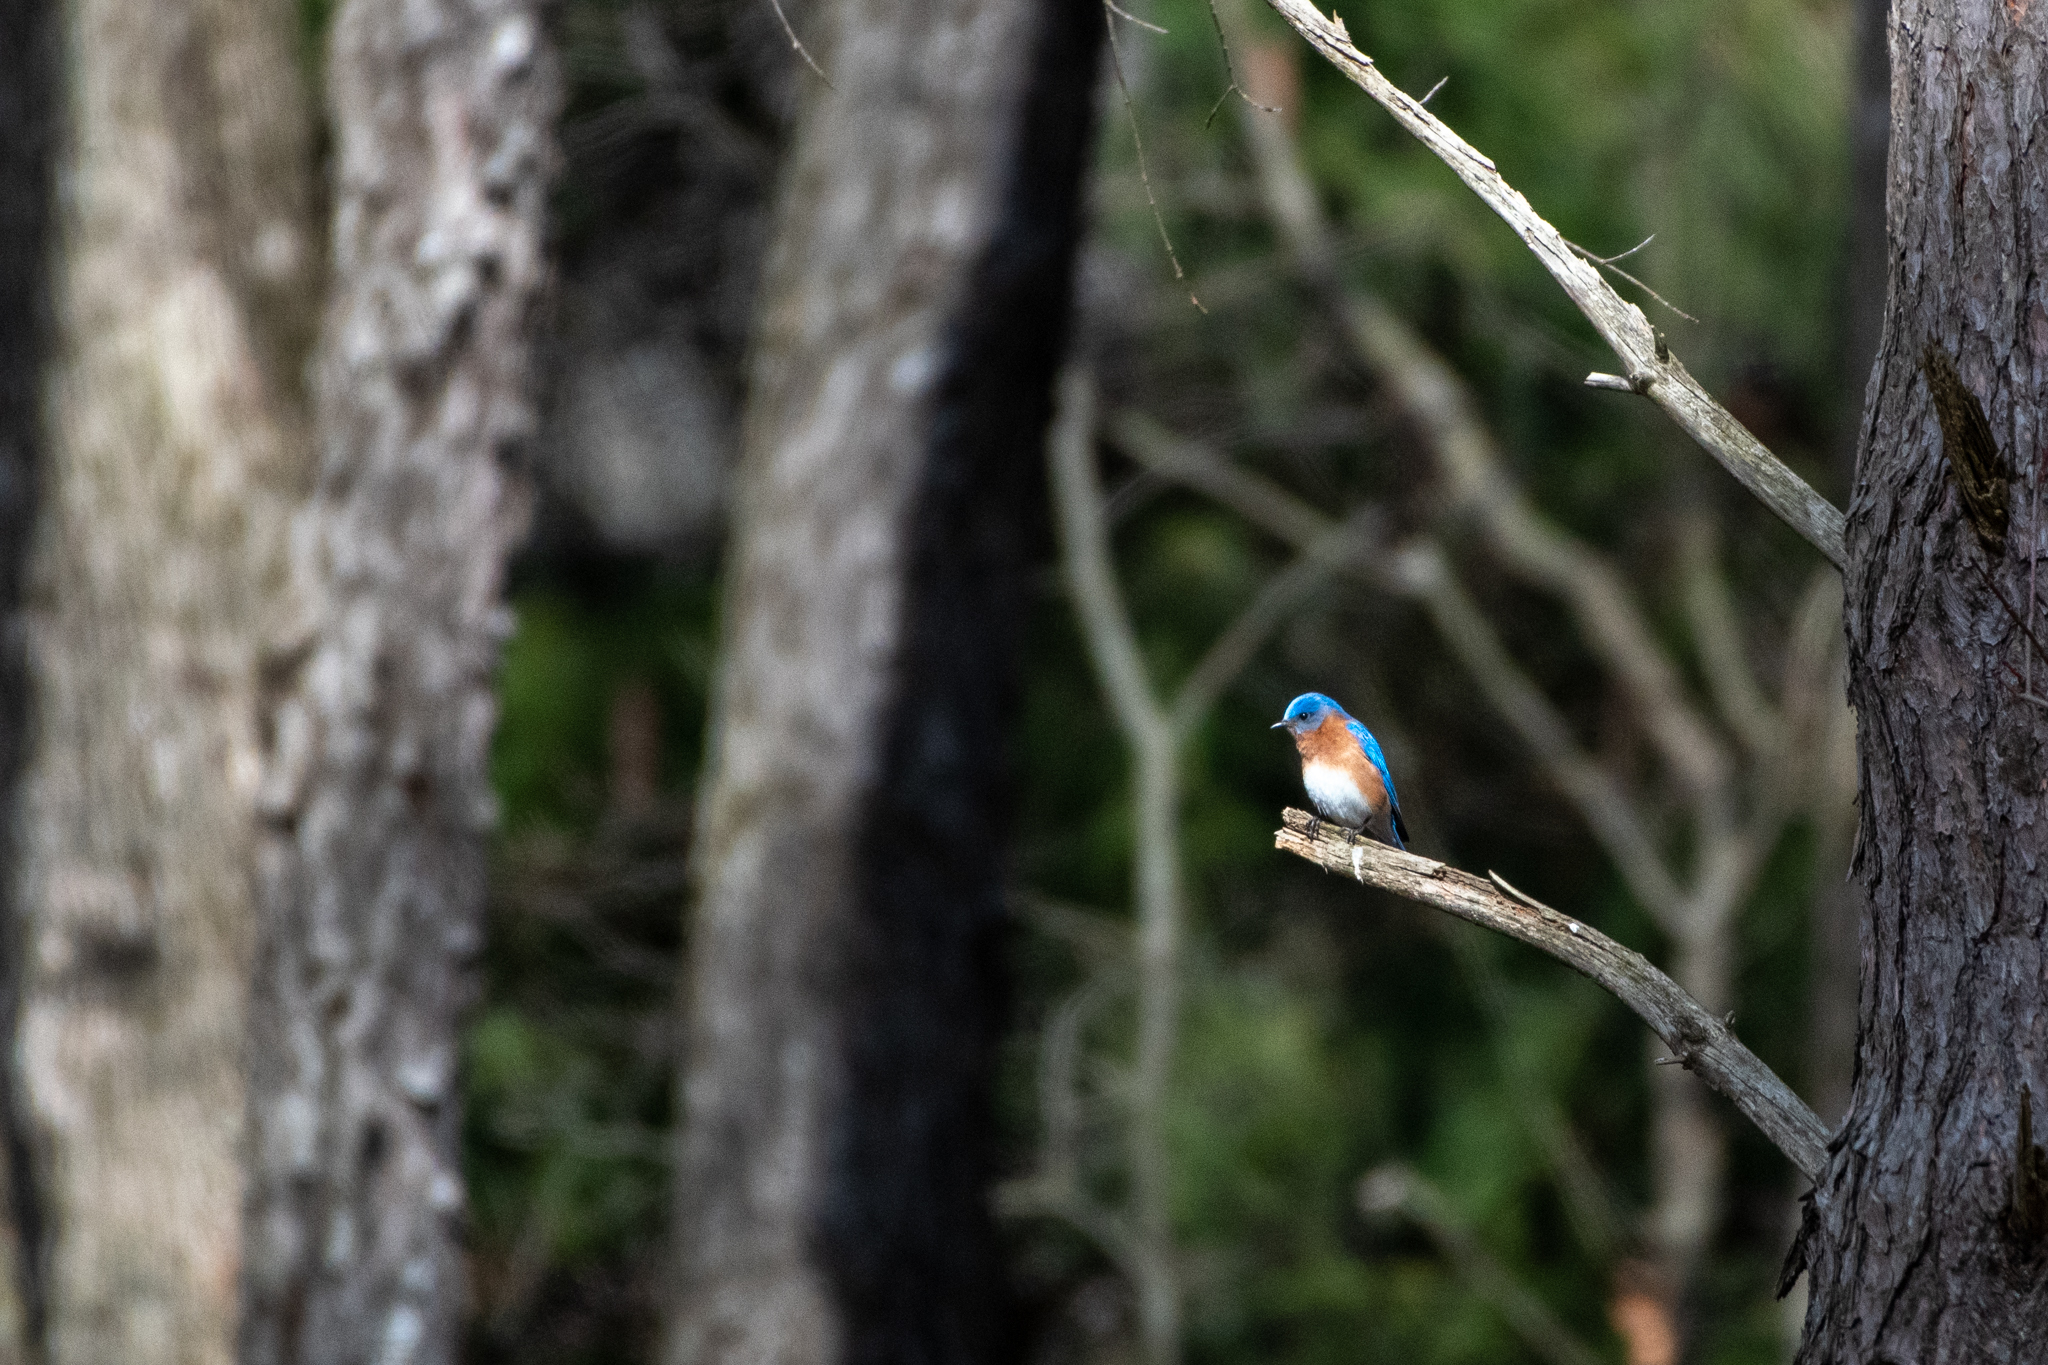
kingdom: Animalia
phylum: Chordata
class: Aves
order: Passeriformes
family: Turdidae
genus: Sialia
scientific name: Sialia sialis
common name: Eastern bluebird
